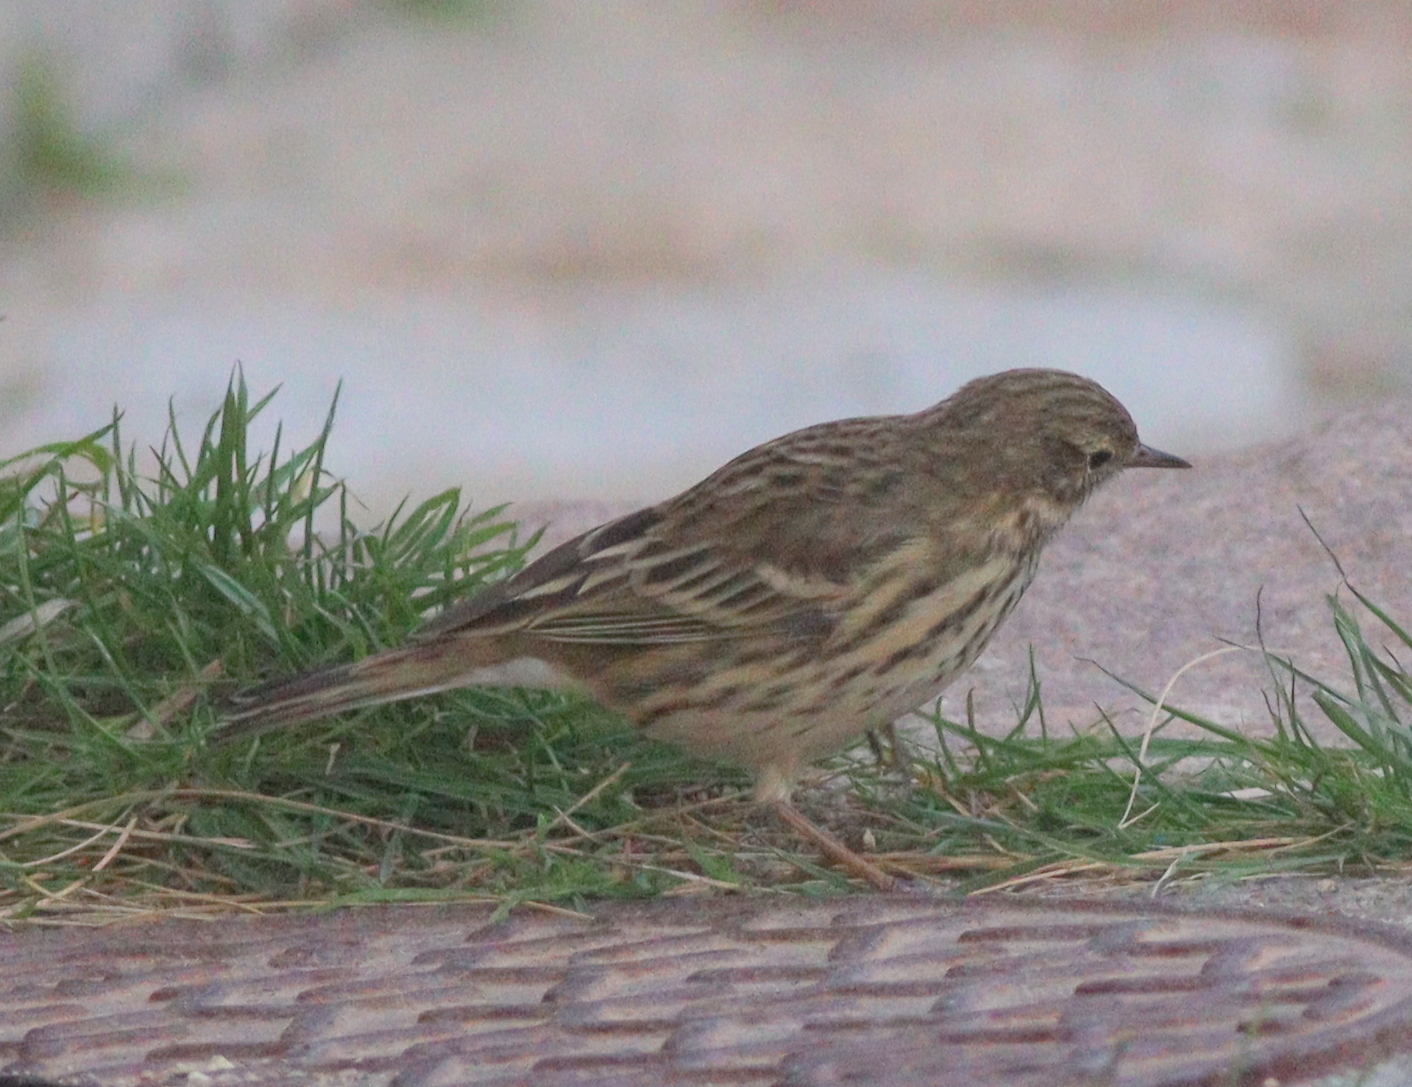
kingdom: Animalia
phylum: Chordata
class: Aves
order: Passeriformes
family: Motacillidae
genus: Anthus
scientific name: Anthus pratensis
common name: Meadow pipit
